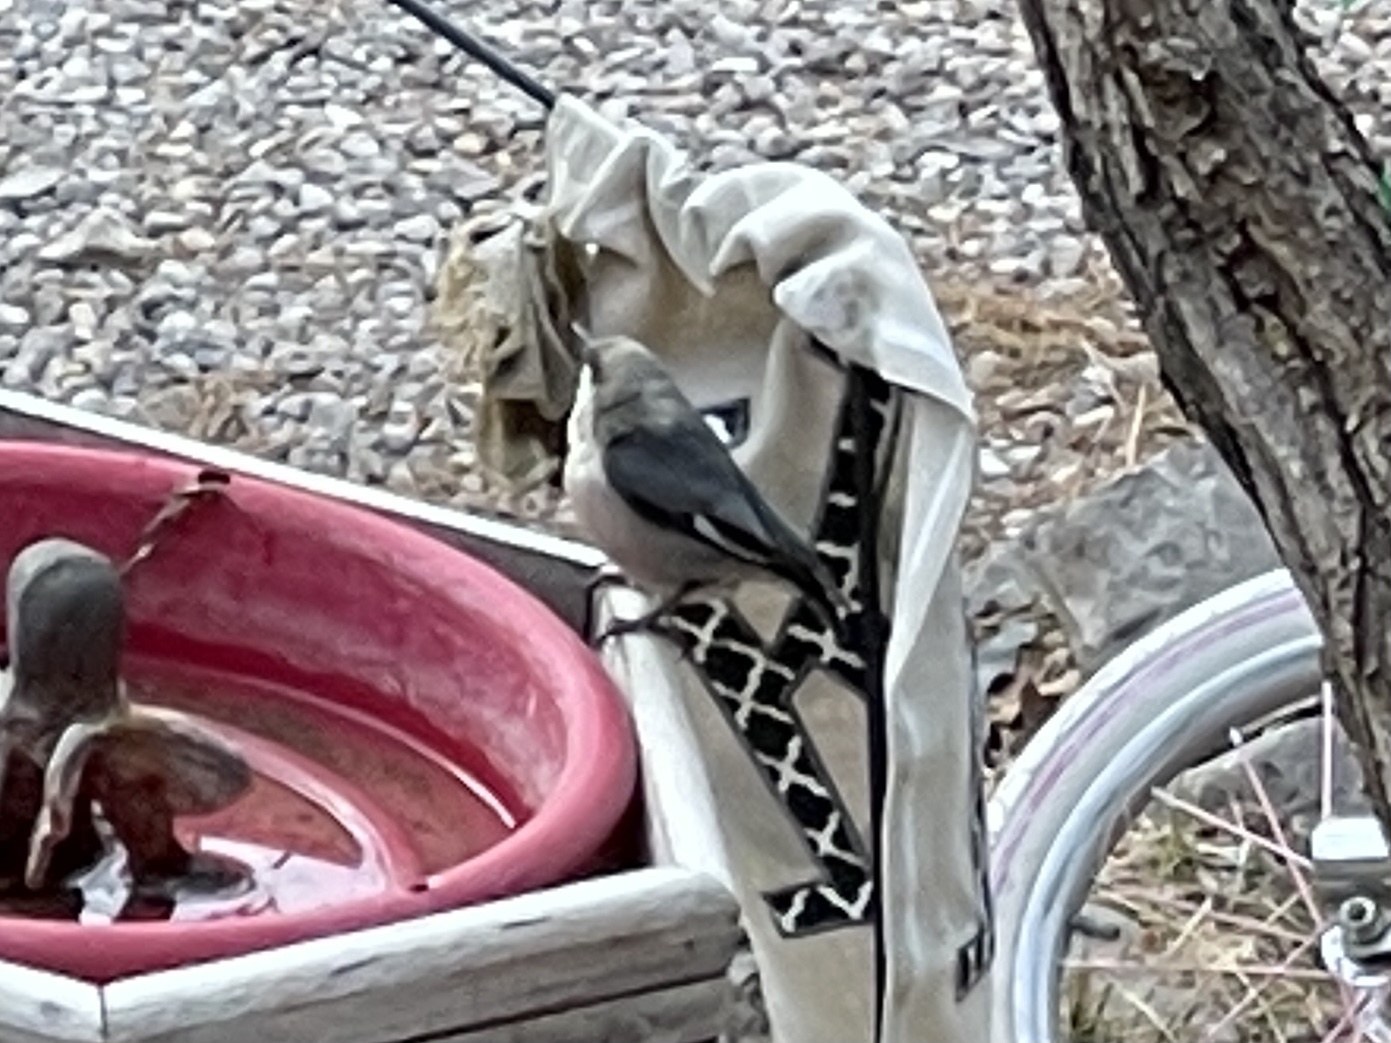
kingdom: Animalia
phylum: Chordata
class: Aves
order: Passeriformes
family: Sittidae
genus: Sitta
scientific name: Sitta pygmaea
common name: Pygmy nuthatch
